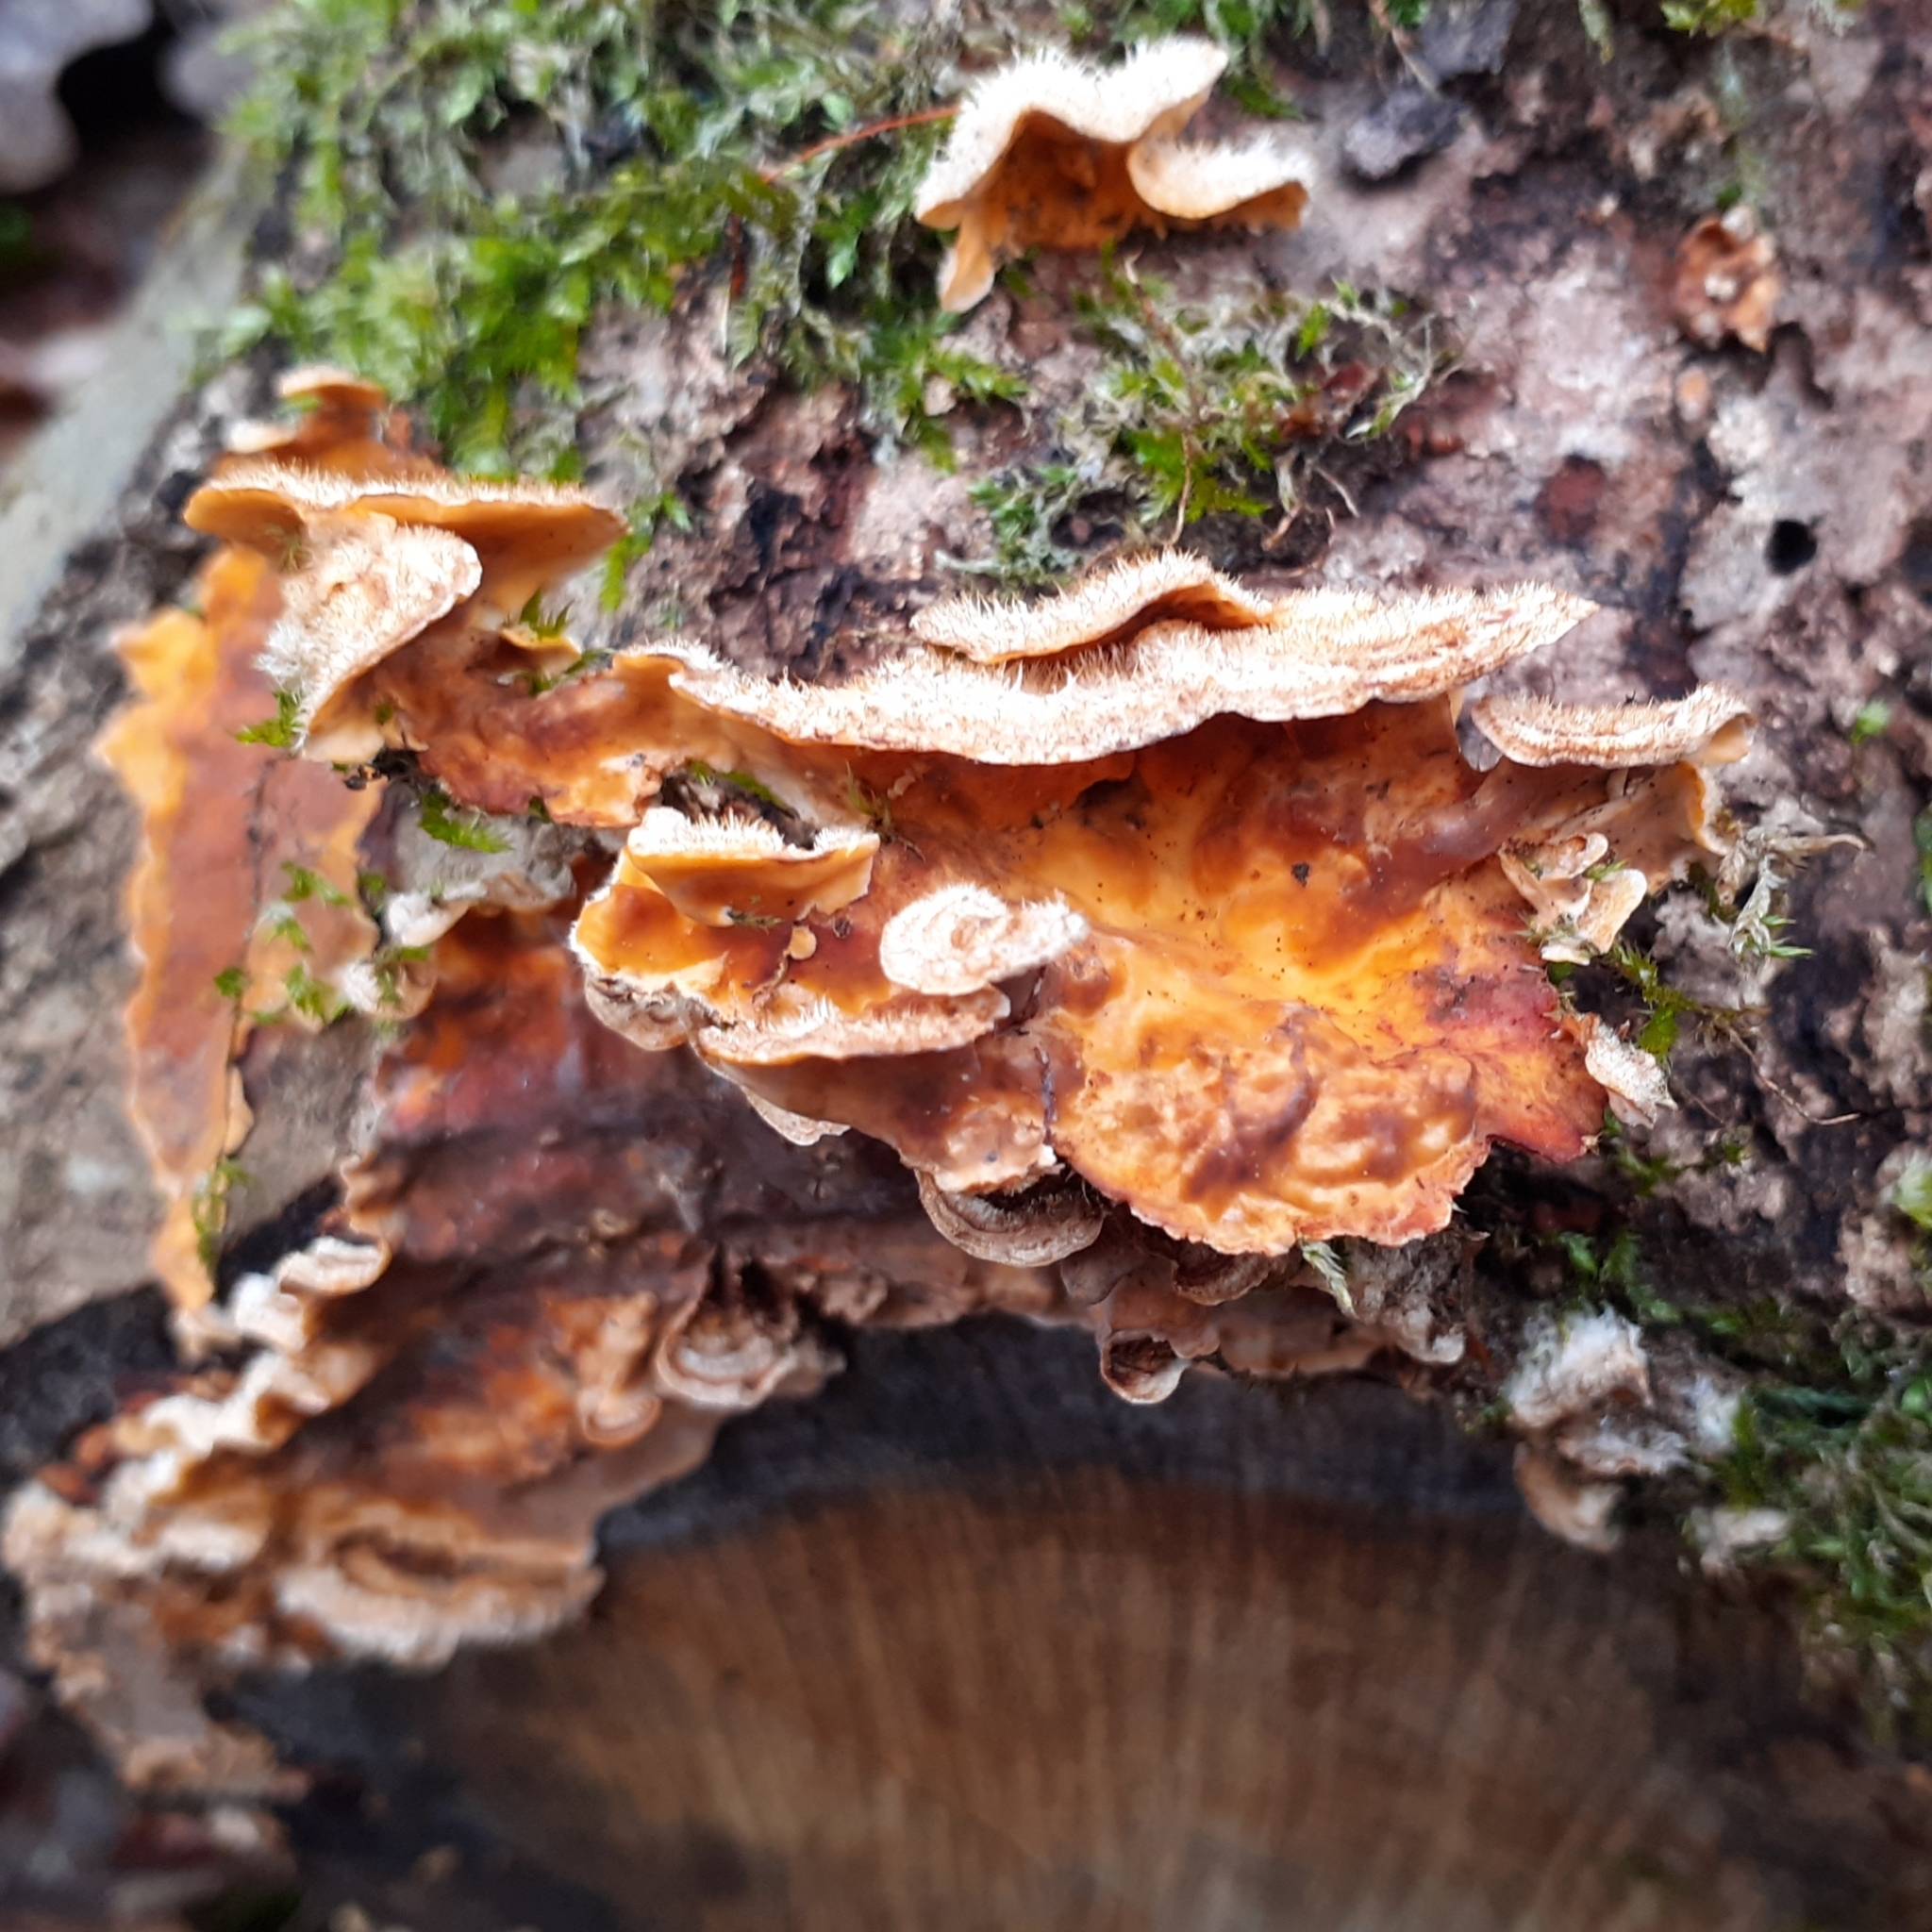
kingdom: Fungi
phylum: Basidiomycota
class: Agaricomycetes
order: Russulales
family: Stereaceae
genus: Stereum
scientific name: Stereum hirsutum
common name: Hairy curtain crust
